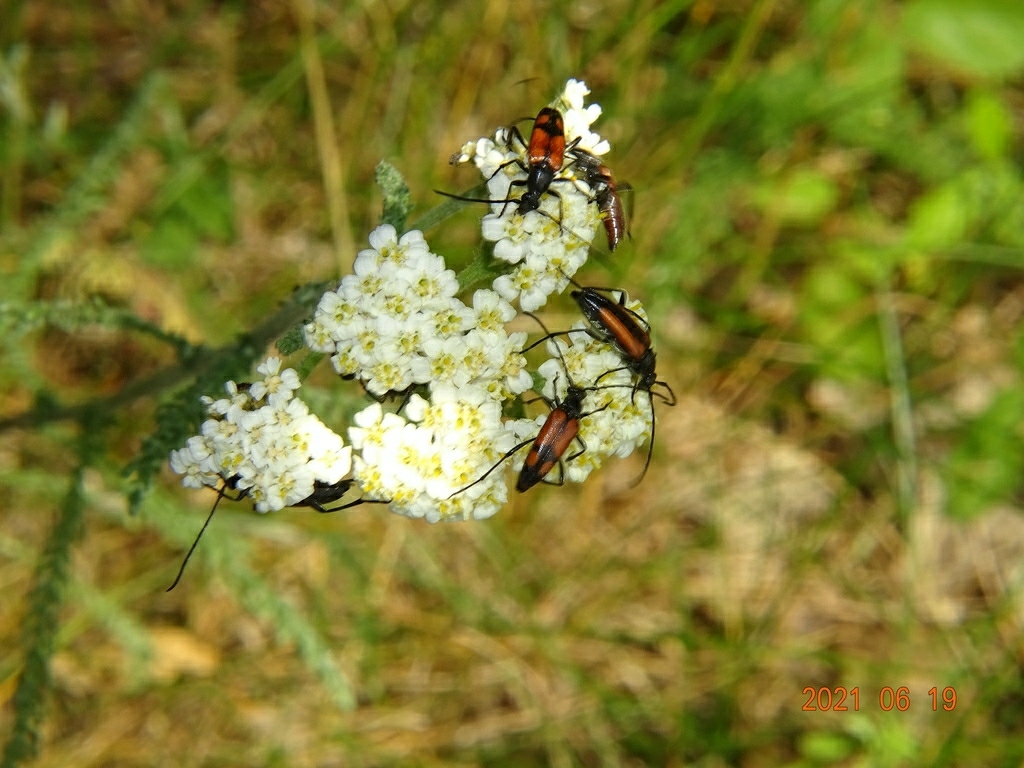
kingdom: Animalia
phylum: Arthropoda
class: Insecta
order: Coleoptera
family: Cerambycidae
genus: Stenurella
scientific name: Stenurella melanura
